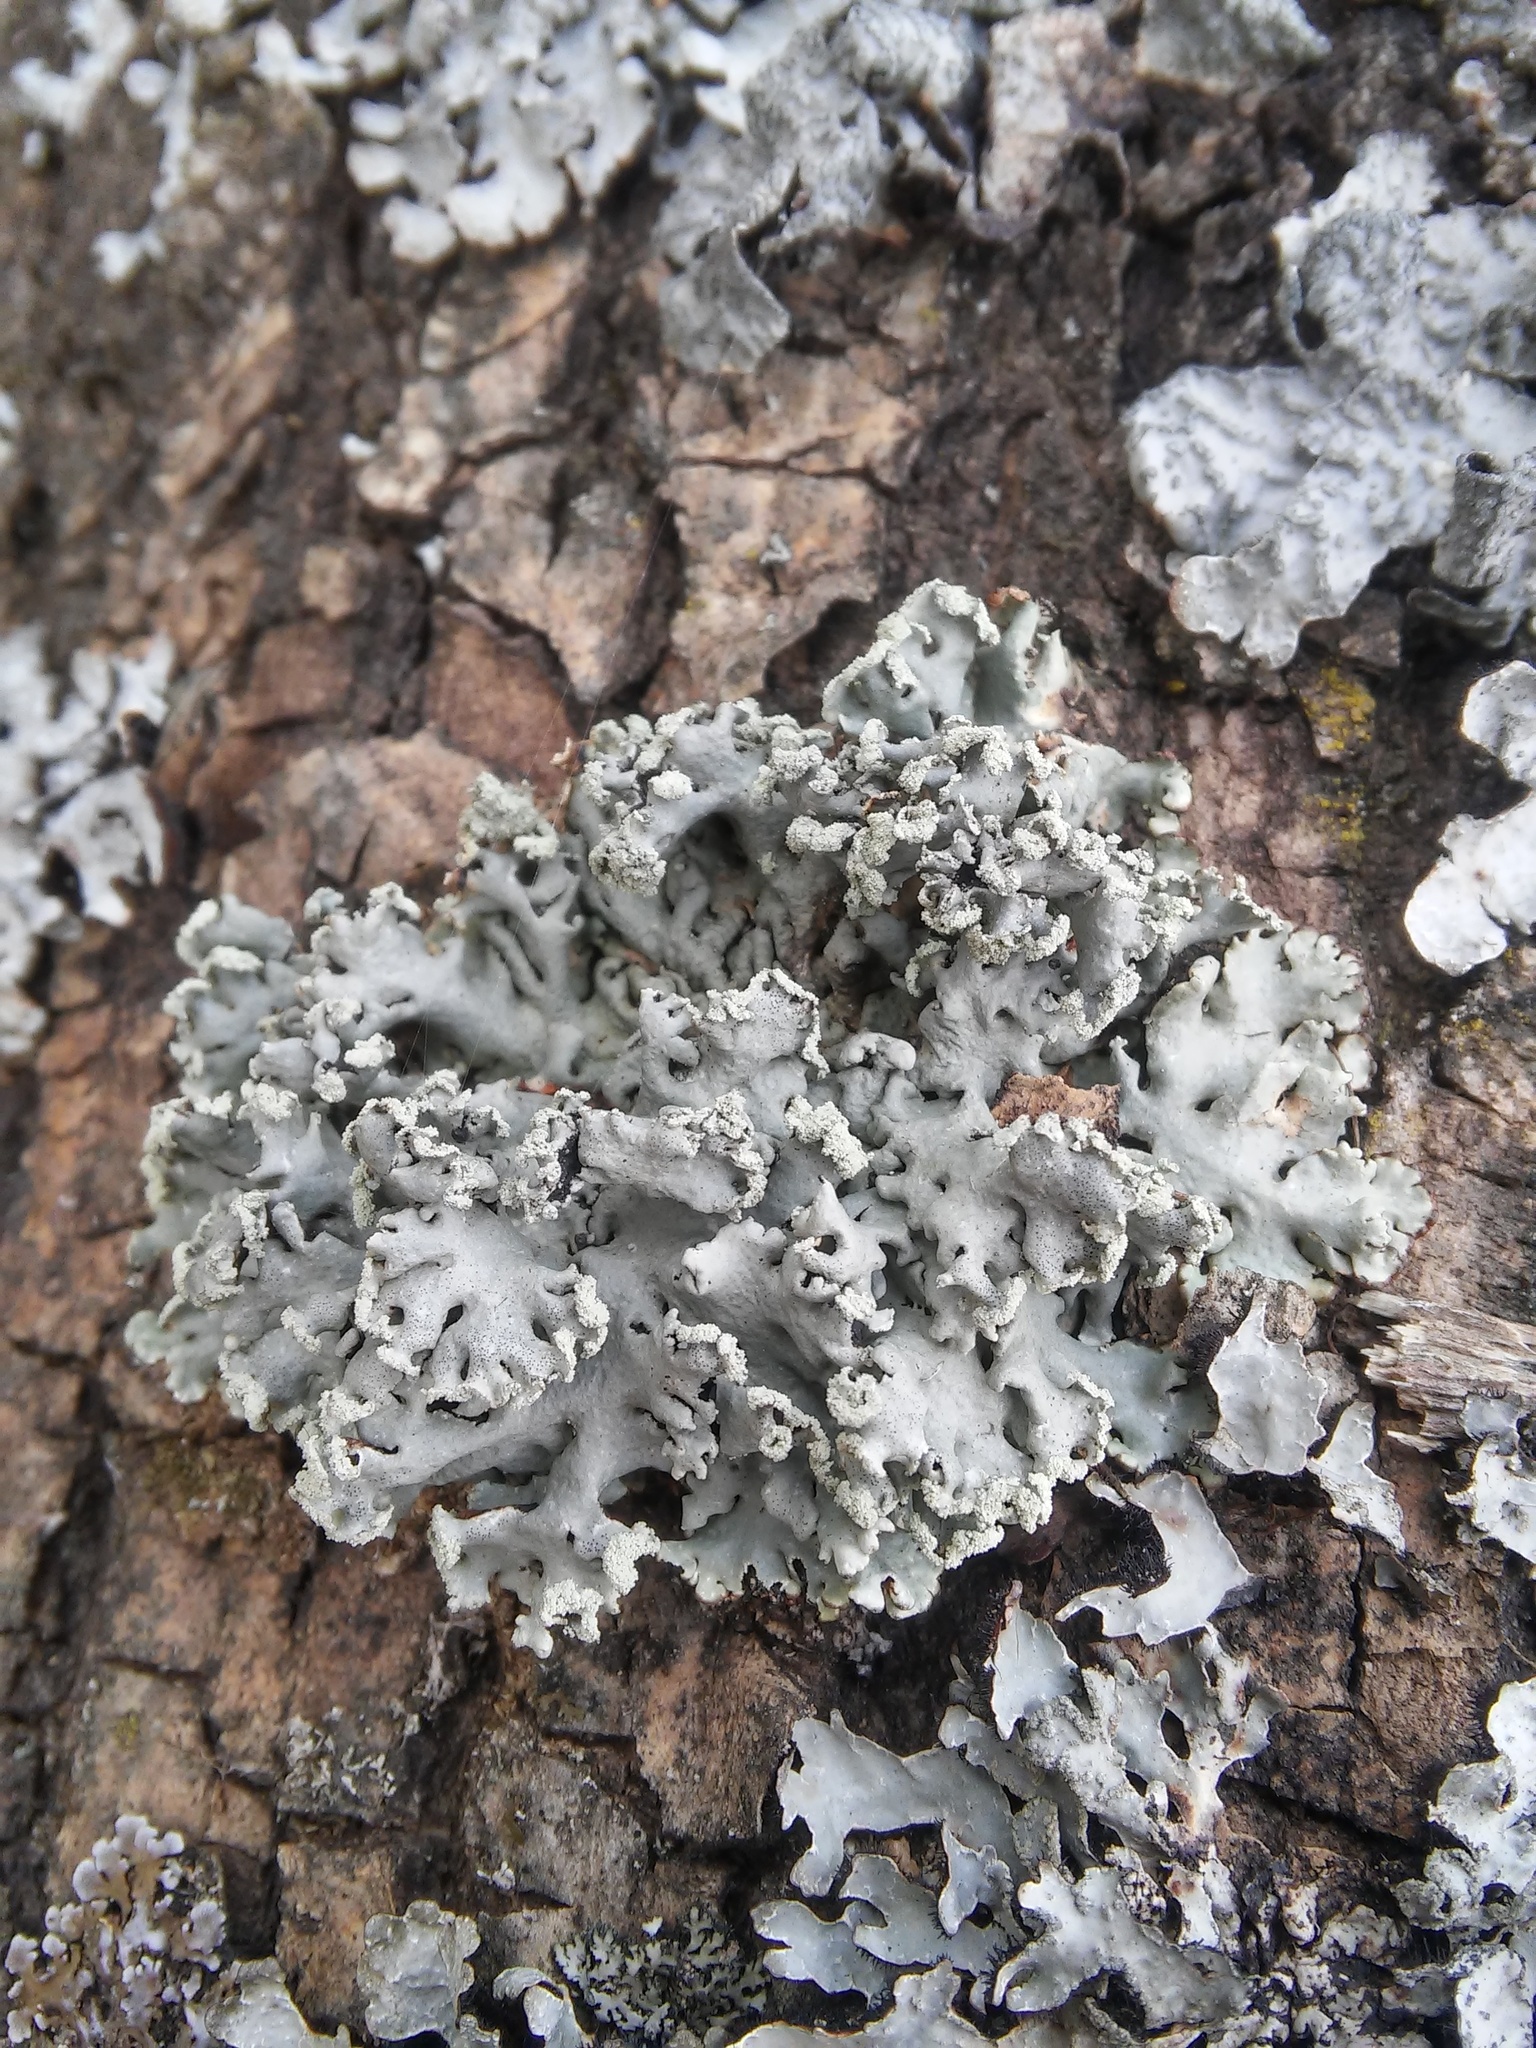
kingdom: Fungi
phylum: Ascomycota
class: Lecanoromycetes
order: Lecanorales
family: Parmeliaceae
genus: Hypogymnia
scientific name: Hypogymnia physodes
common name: Dark crottle
